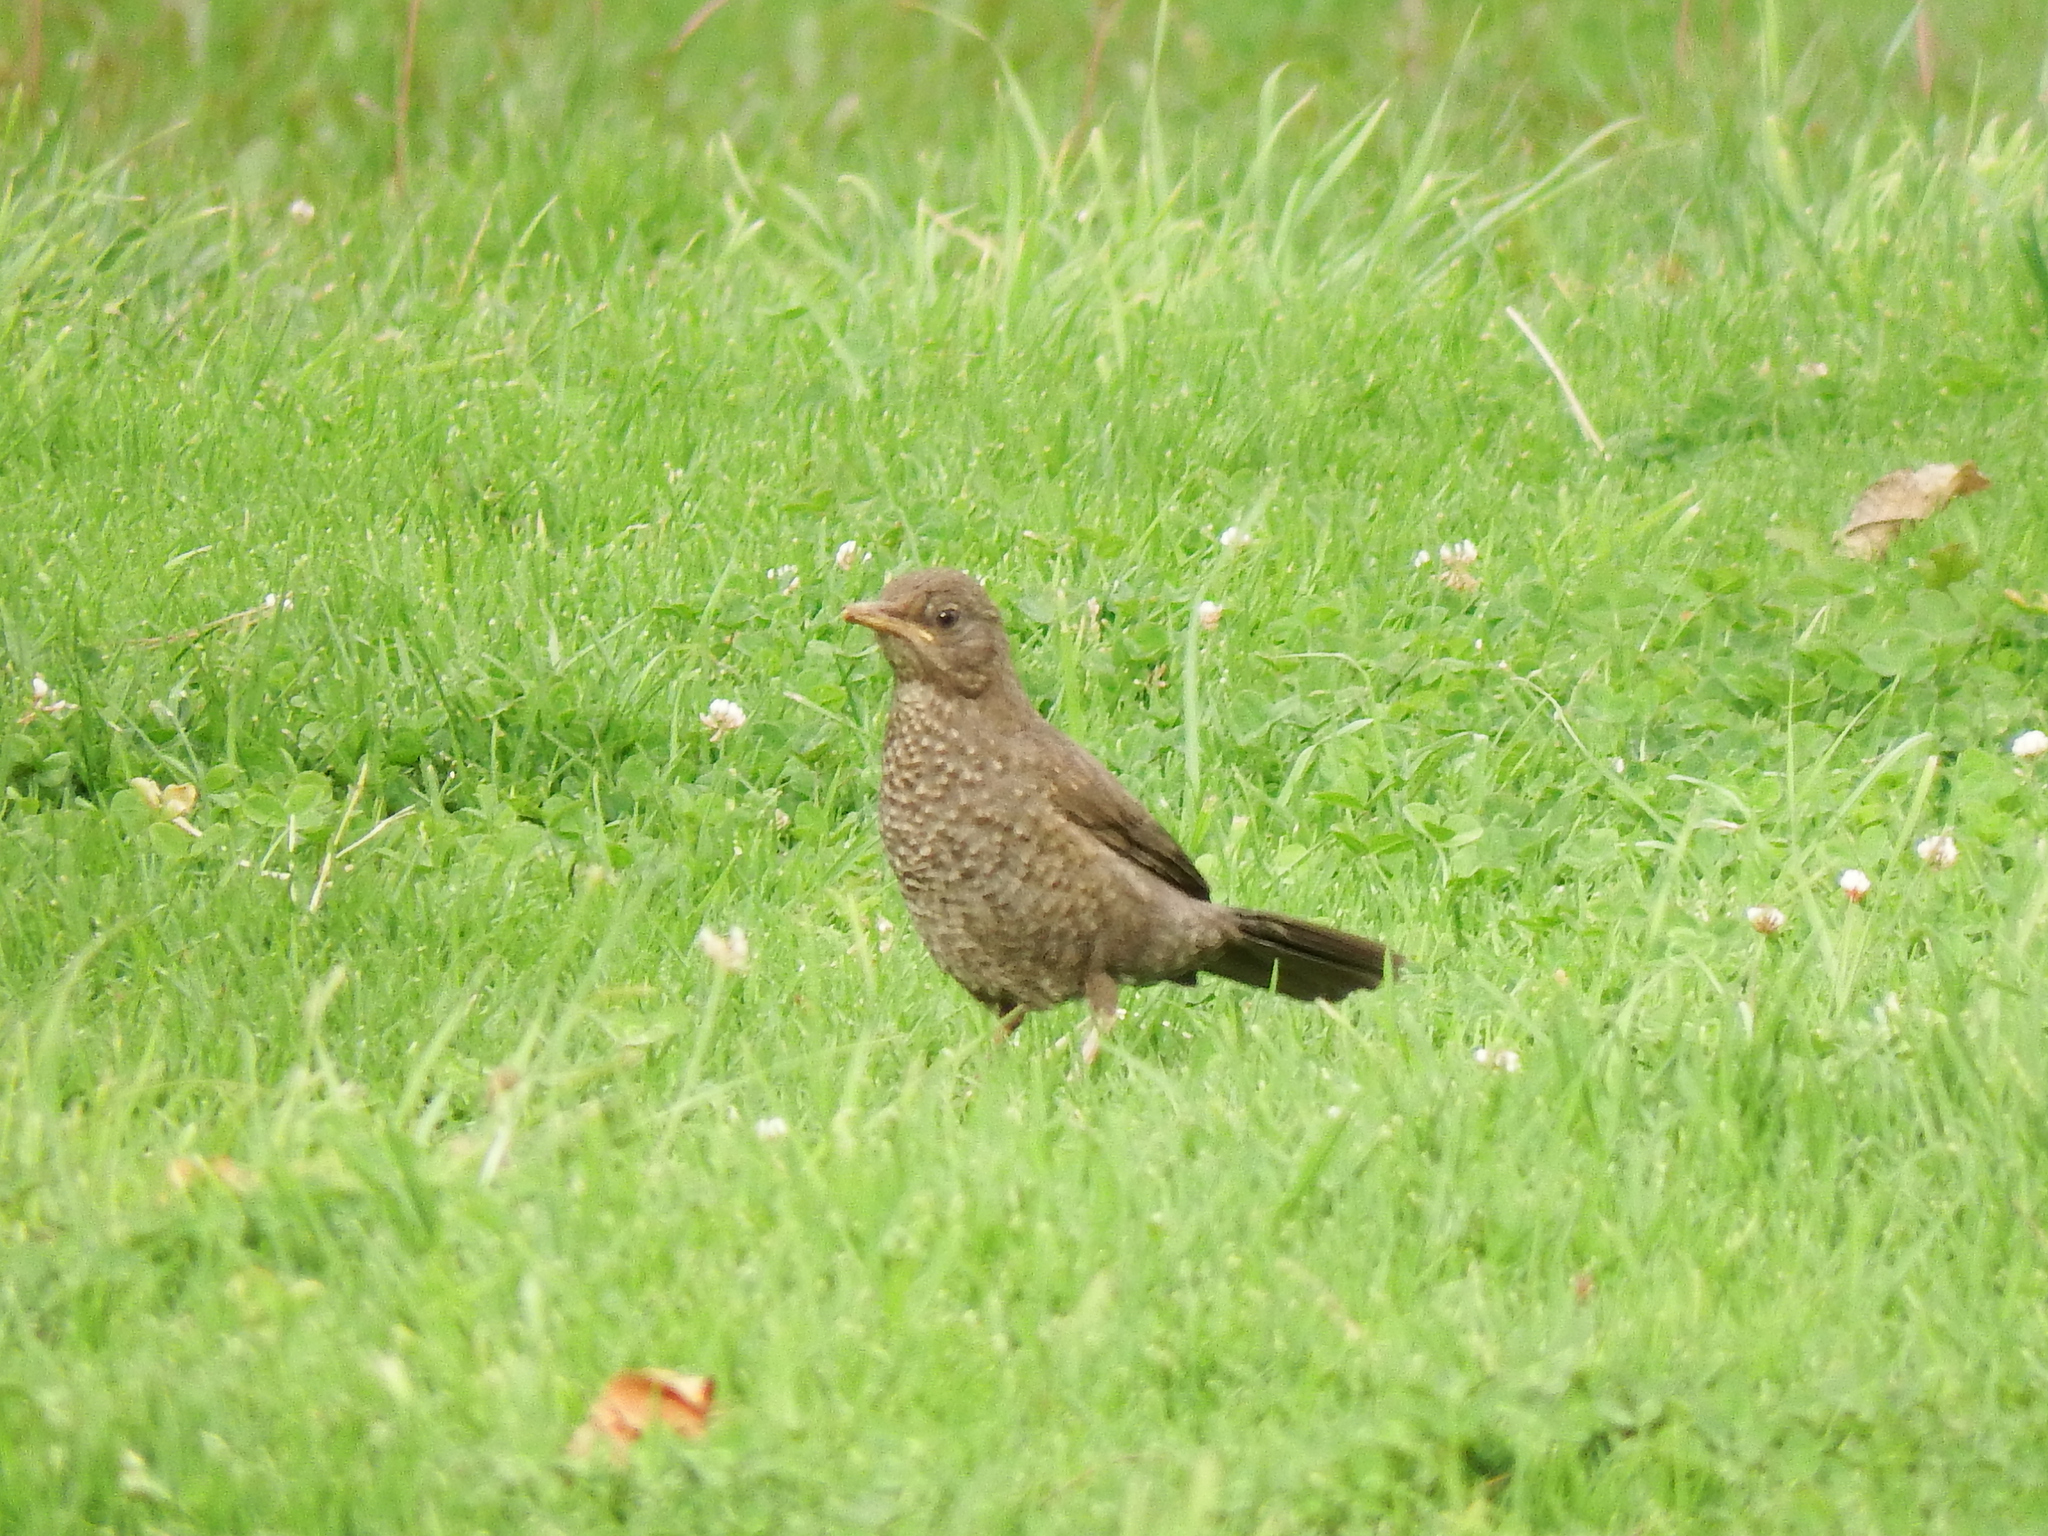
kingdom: Animalia
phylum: Chordata
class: Aves
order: Passeriformes
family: Turdidae
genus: Turdus
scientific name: Turdus chiguanco
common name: Chiguanco thrush
